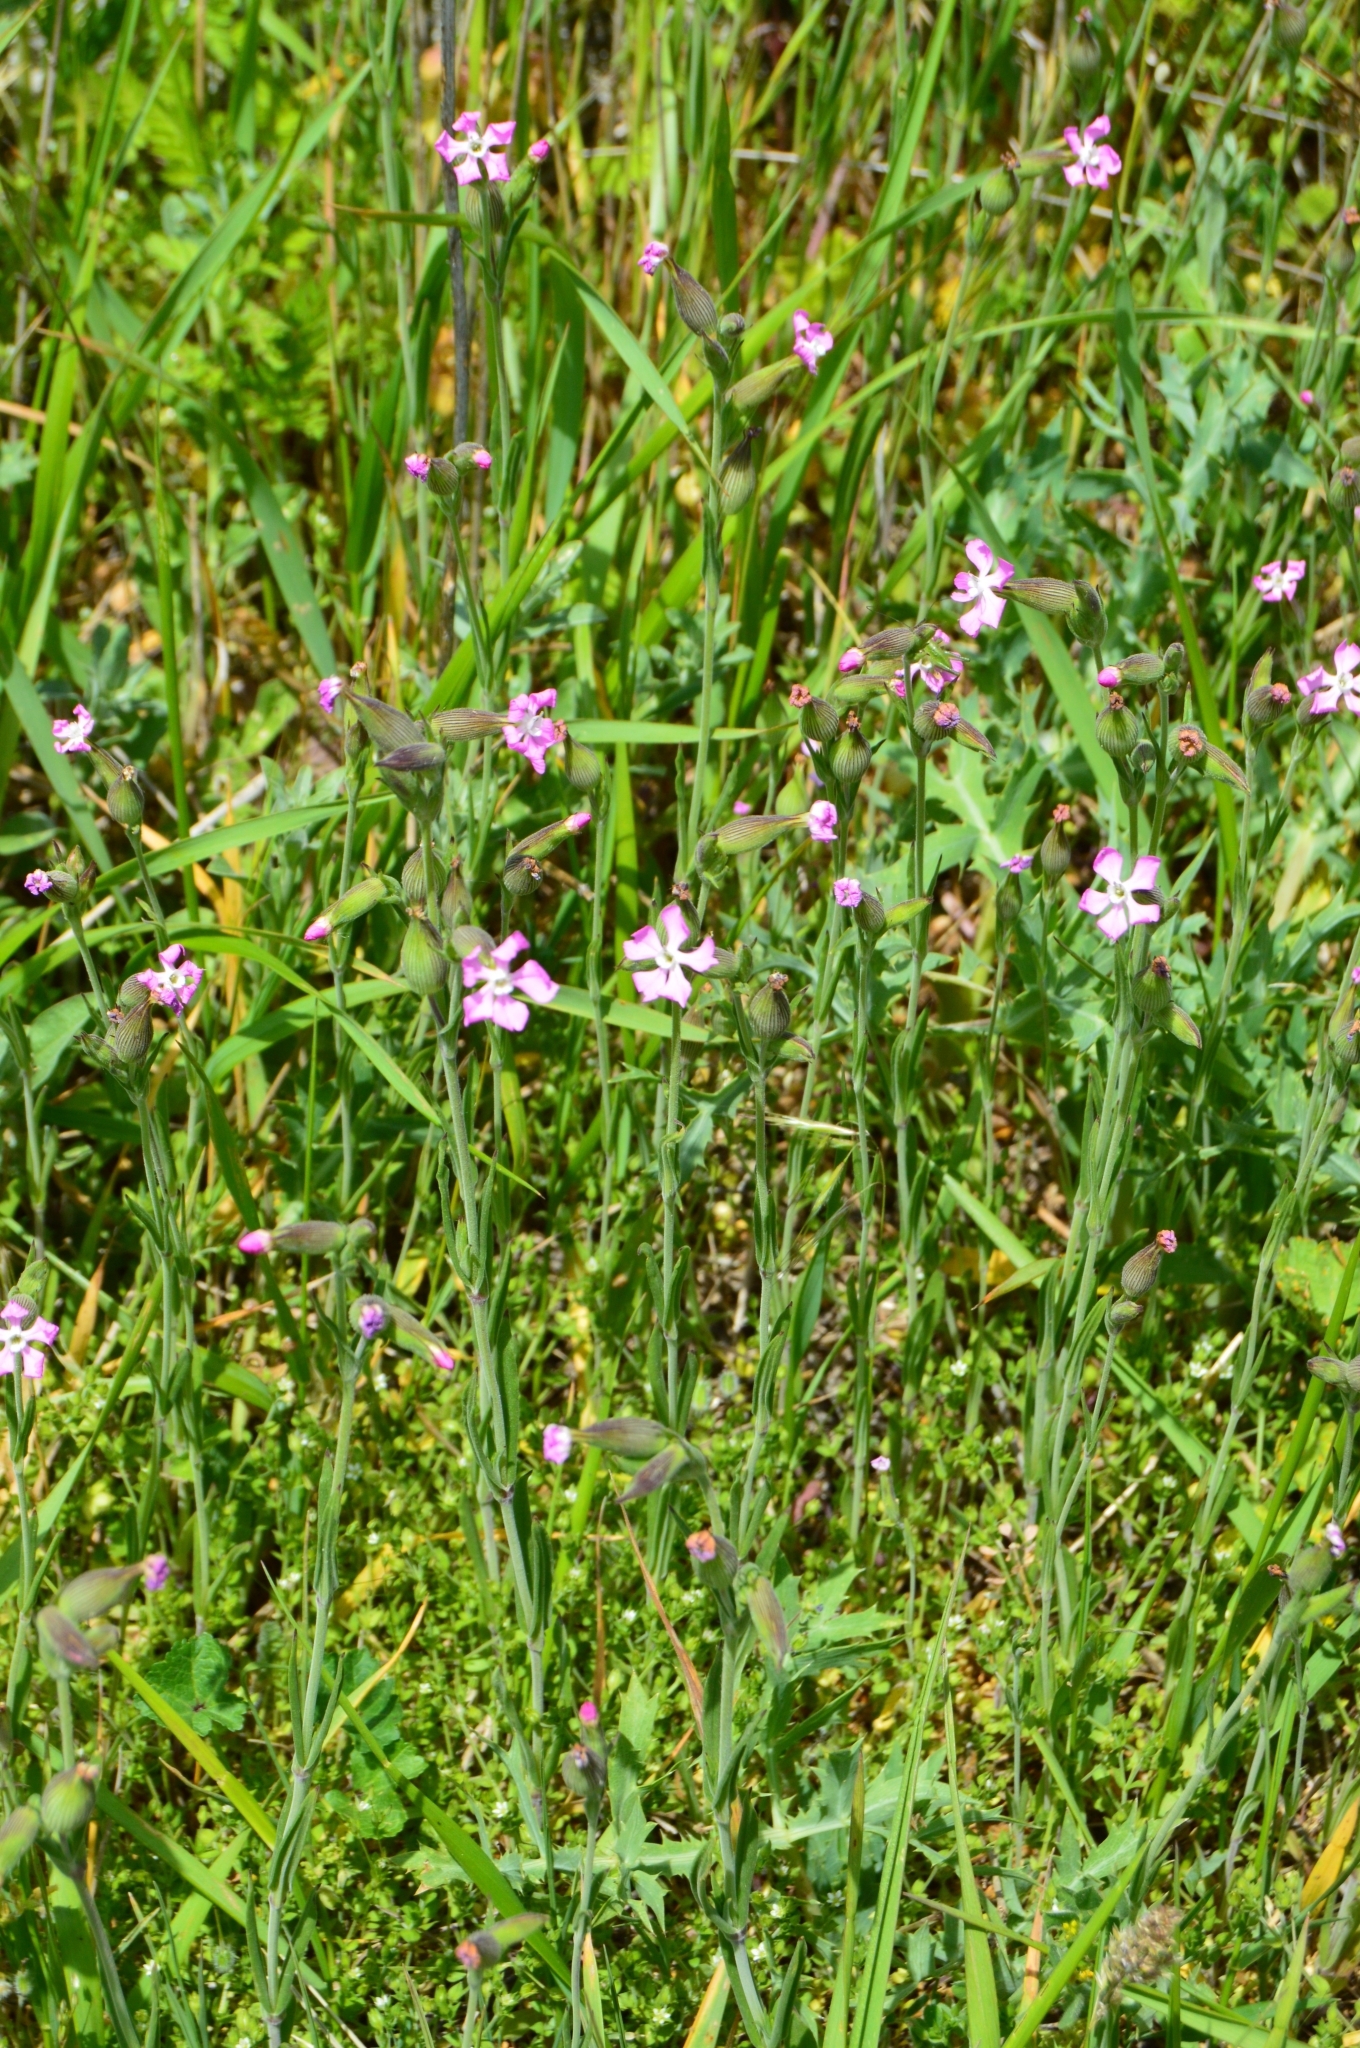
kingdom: Plantae
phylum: Tracheophyta
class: Magnoliopsida
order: Caryophyllales
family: Caryophyllaceae
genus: Silene
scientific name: Silene subconica
